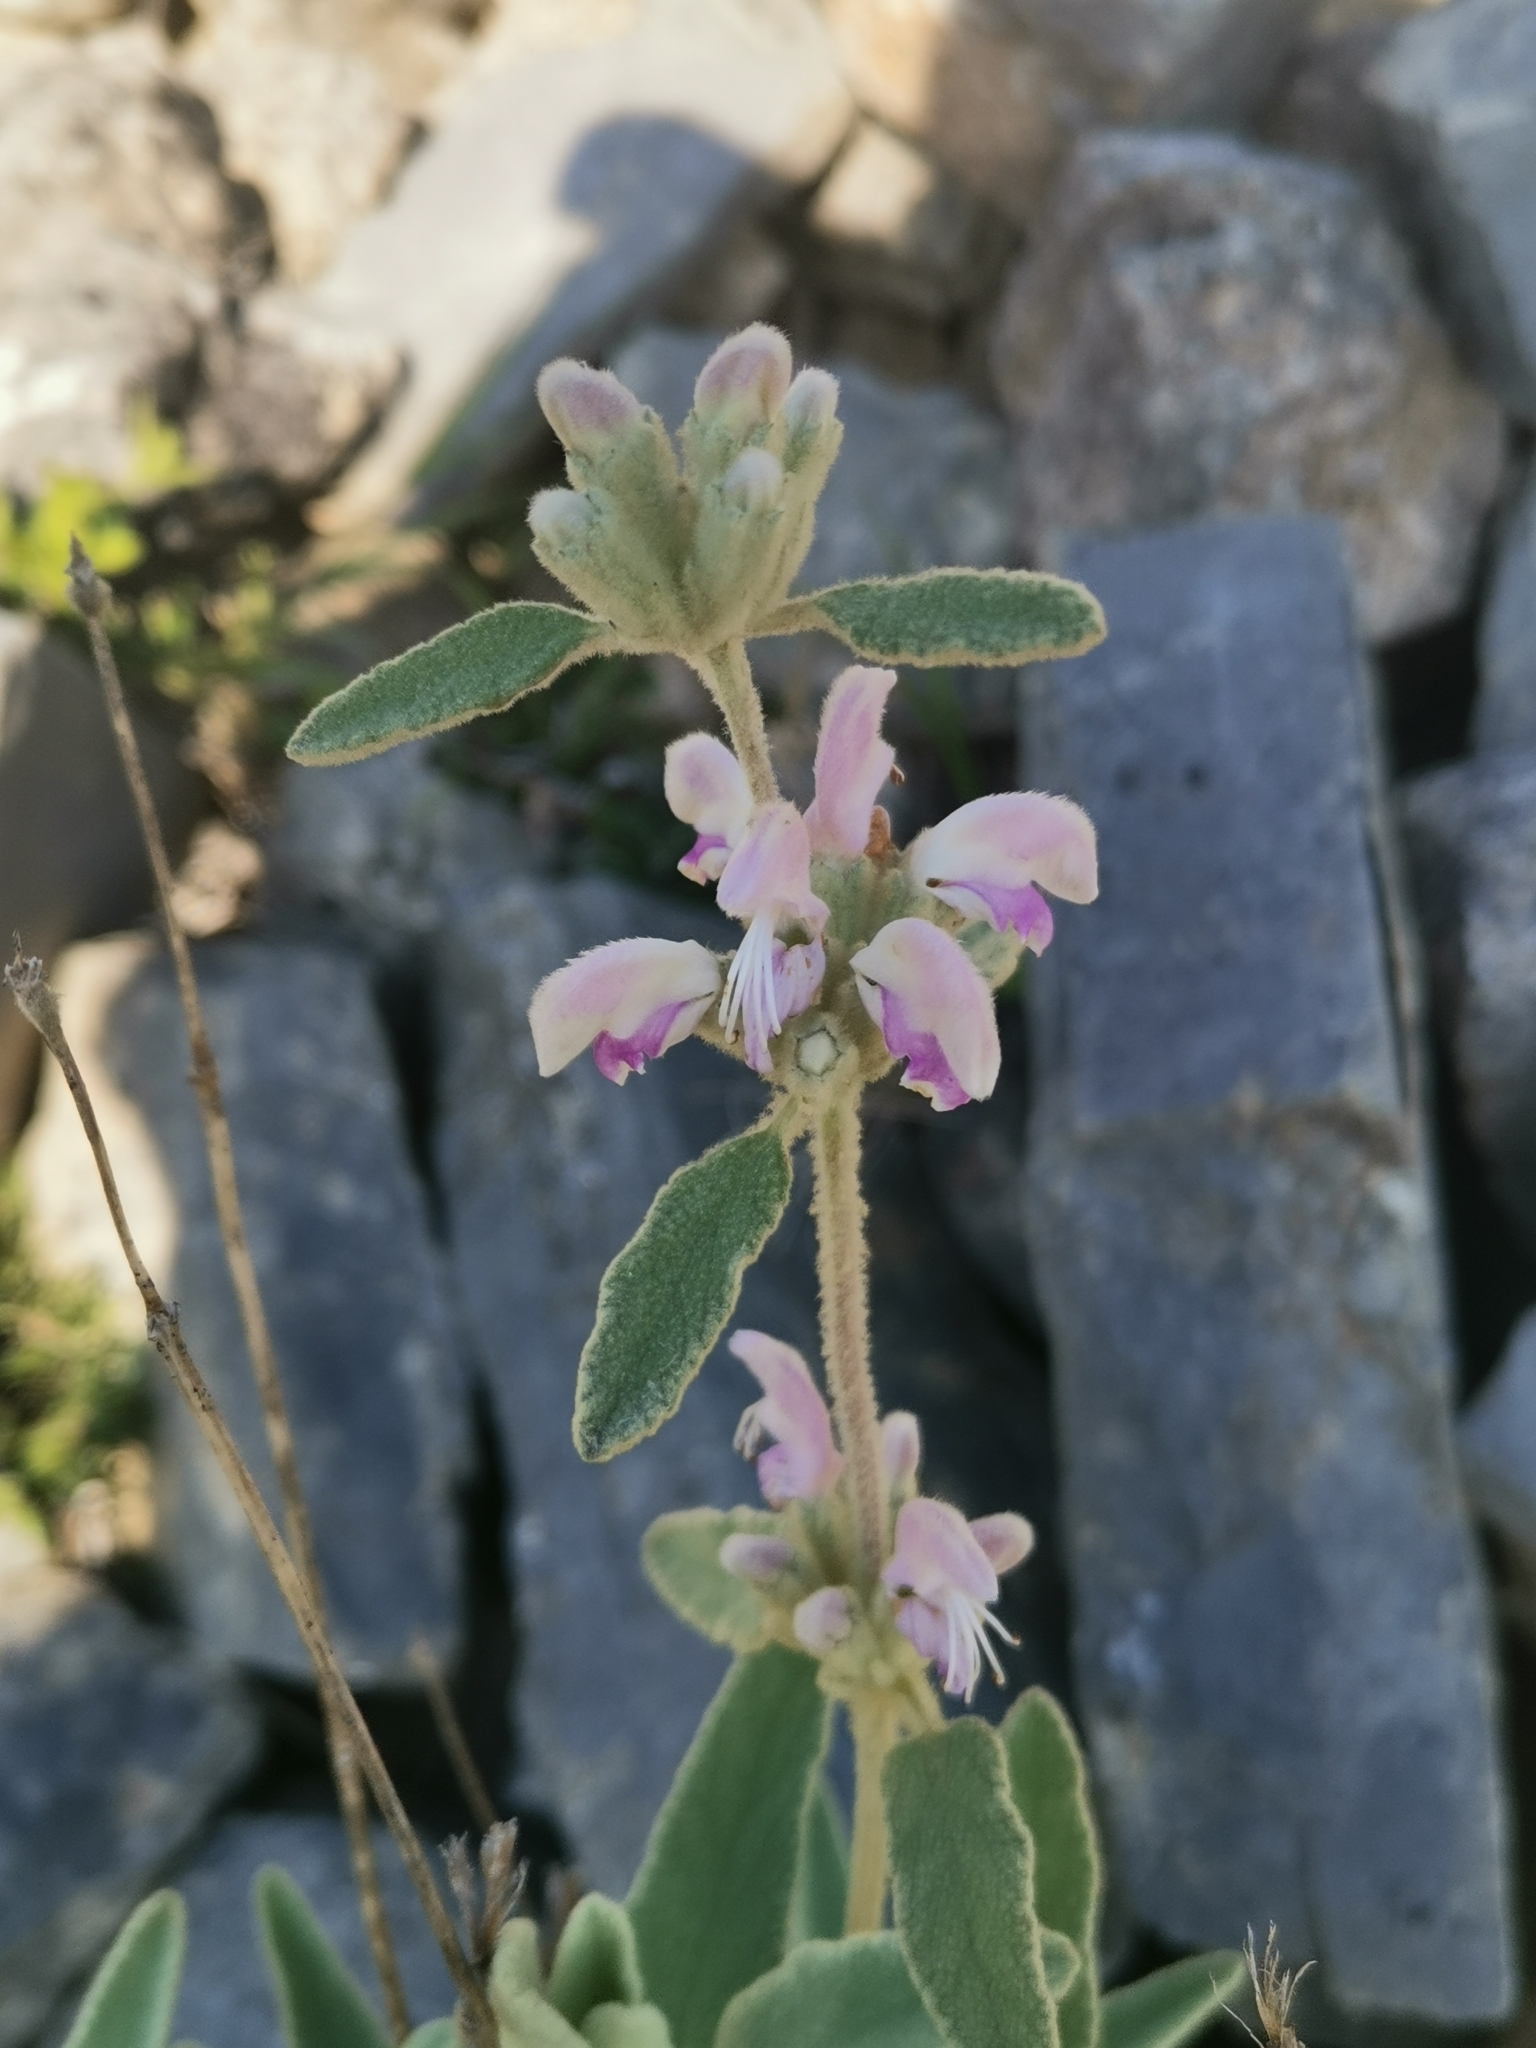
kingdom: Plantae
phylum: Tracheophyta
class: Magnoliopsida
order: Lamiales
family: Lamiaceae
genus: Phlomis
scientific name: Phlomis italica
